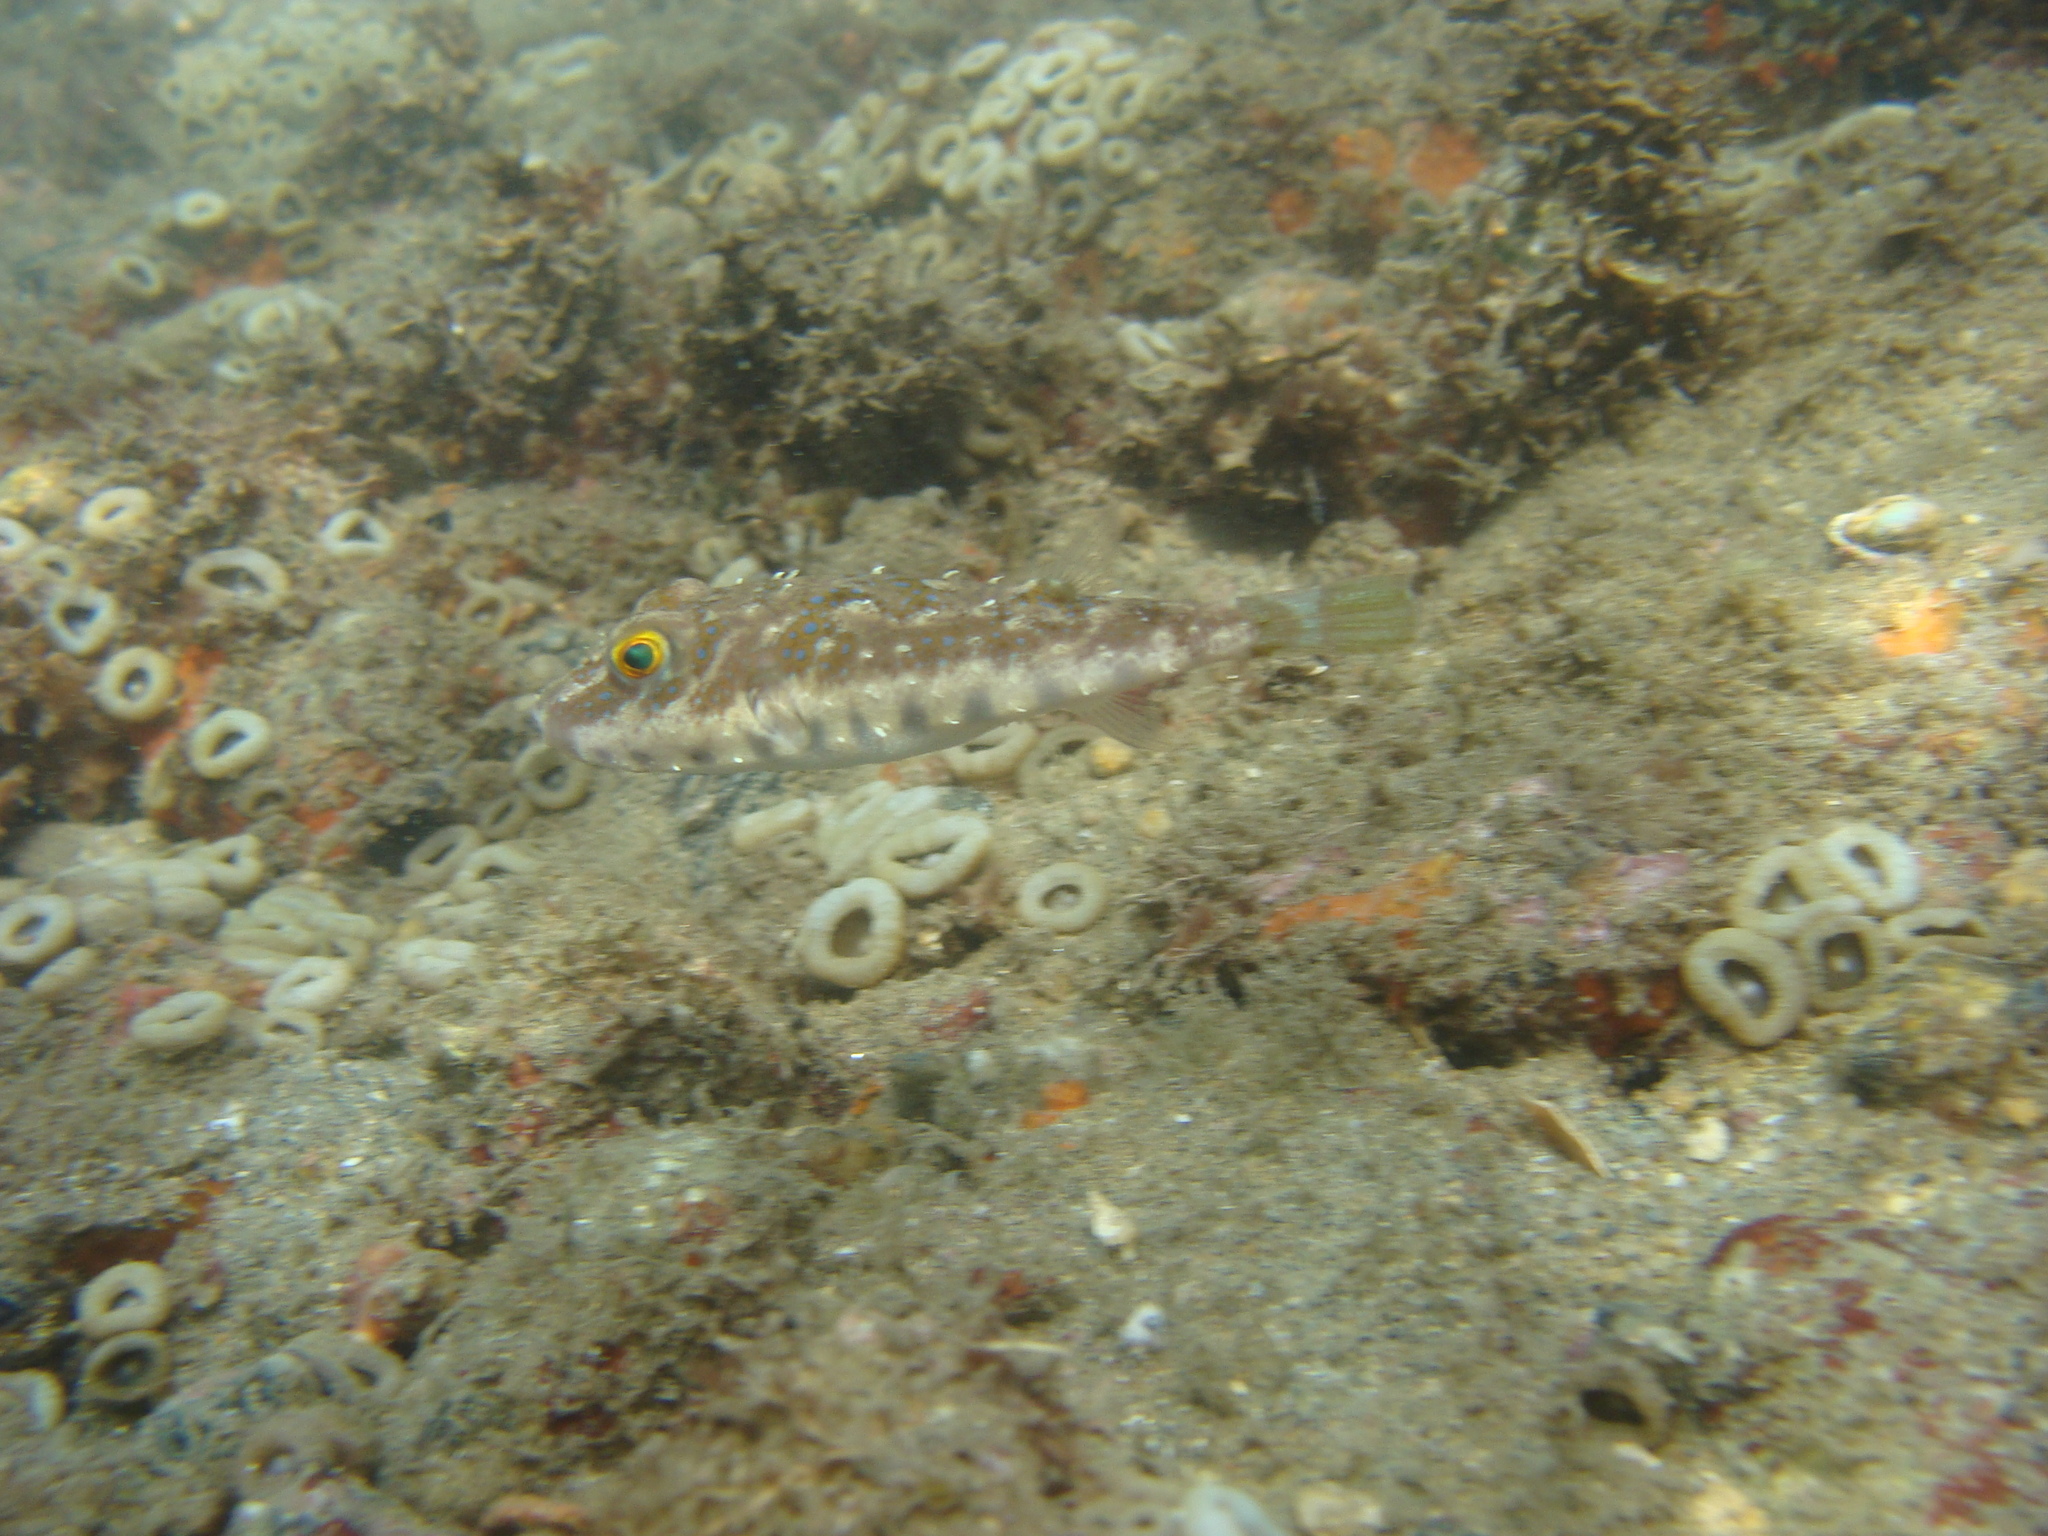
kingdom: Animalia
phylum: Chordata
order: Tetraodontiformes
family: Tetraodontidae
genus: Sphoeroides
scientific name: Sphoeroides
